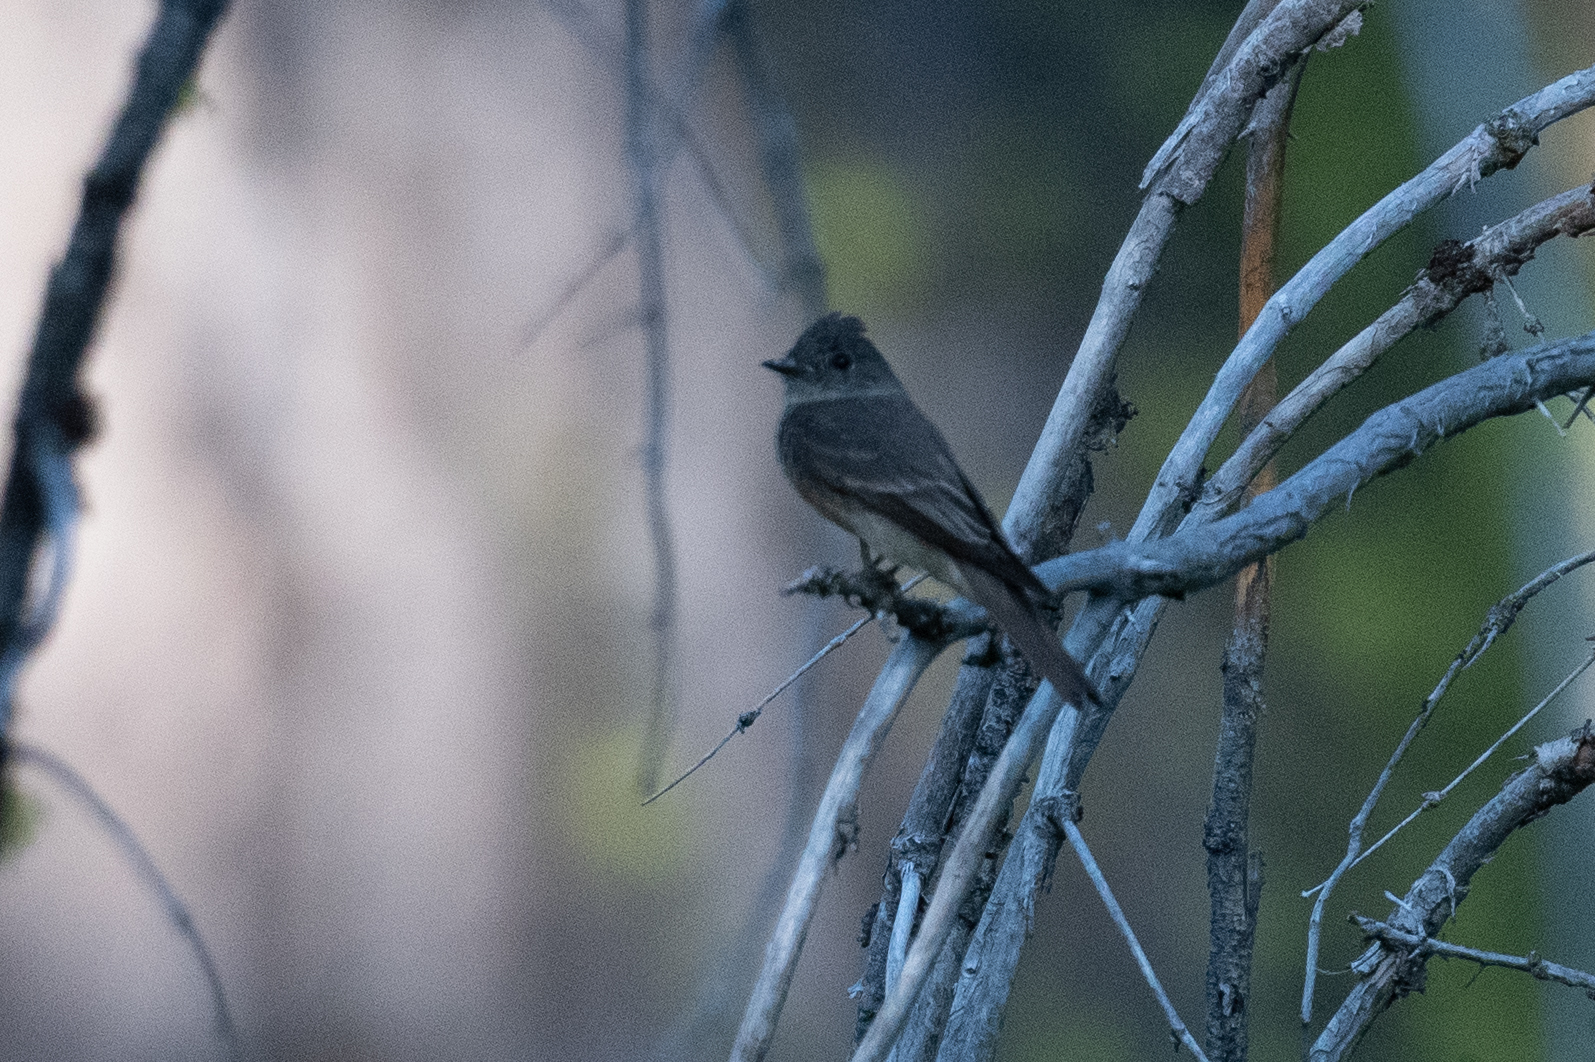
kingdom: Animalia
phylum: Chordata
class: Aves
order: Passeriformes
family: Tyrannidae
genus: Contopus
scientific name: Contopus sordidulus
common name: Western wood-pewee
